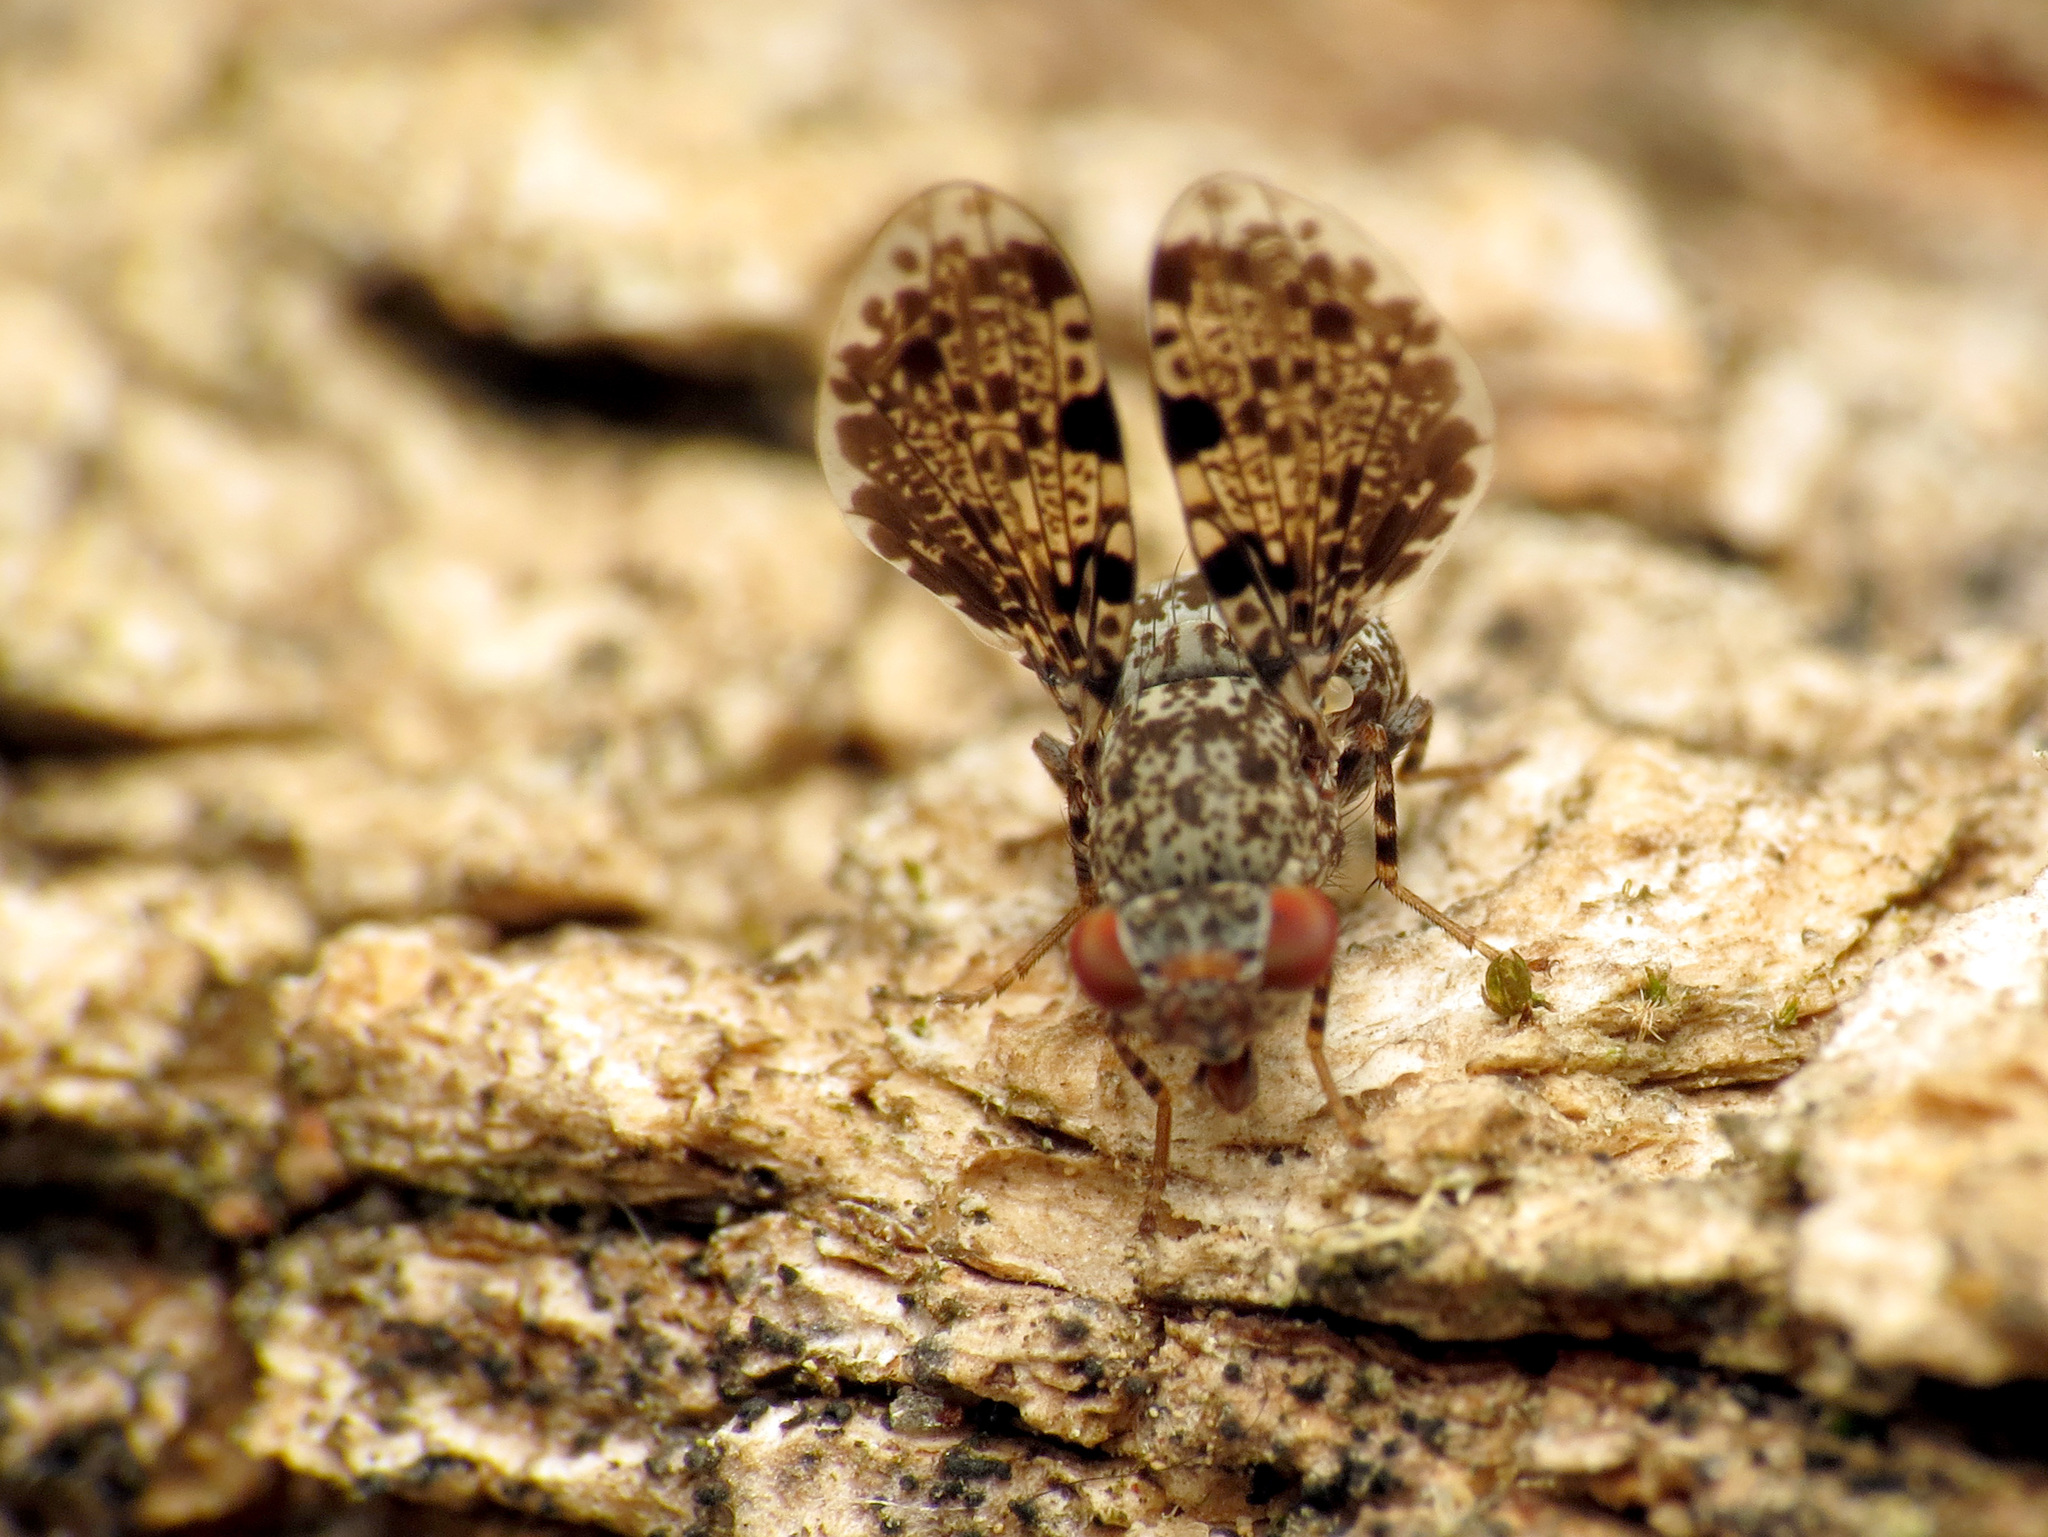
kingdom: Animalia
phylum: Arthropoda
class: Insecta
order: Diptera
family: Ulidiidae
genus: Callopistromyia
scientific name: Callopistromyia annulipes
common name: Peacock fly
